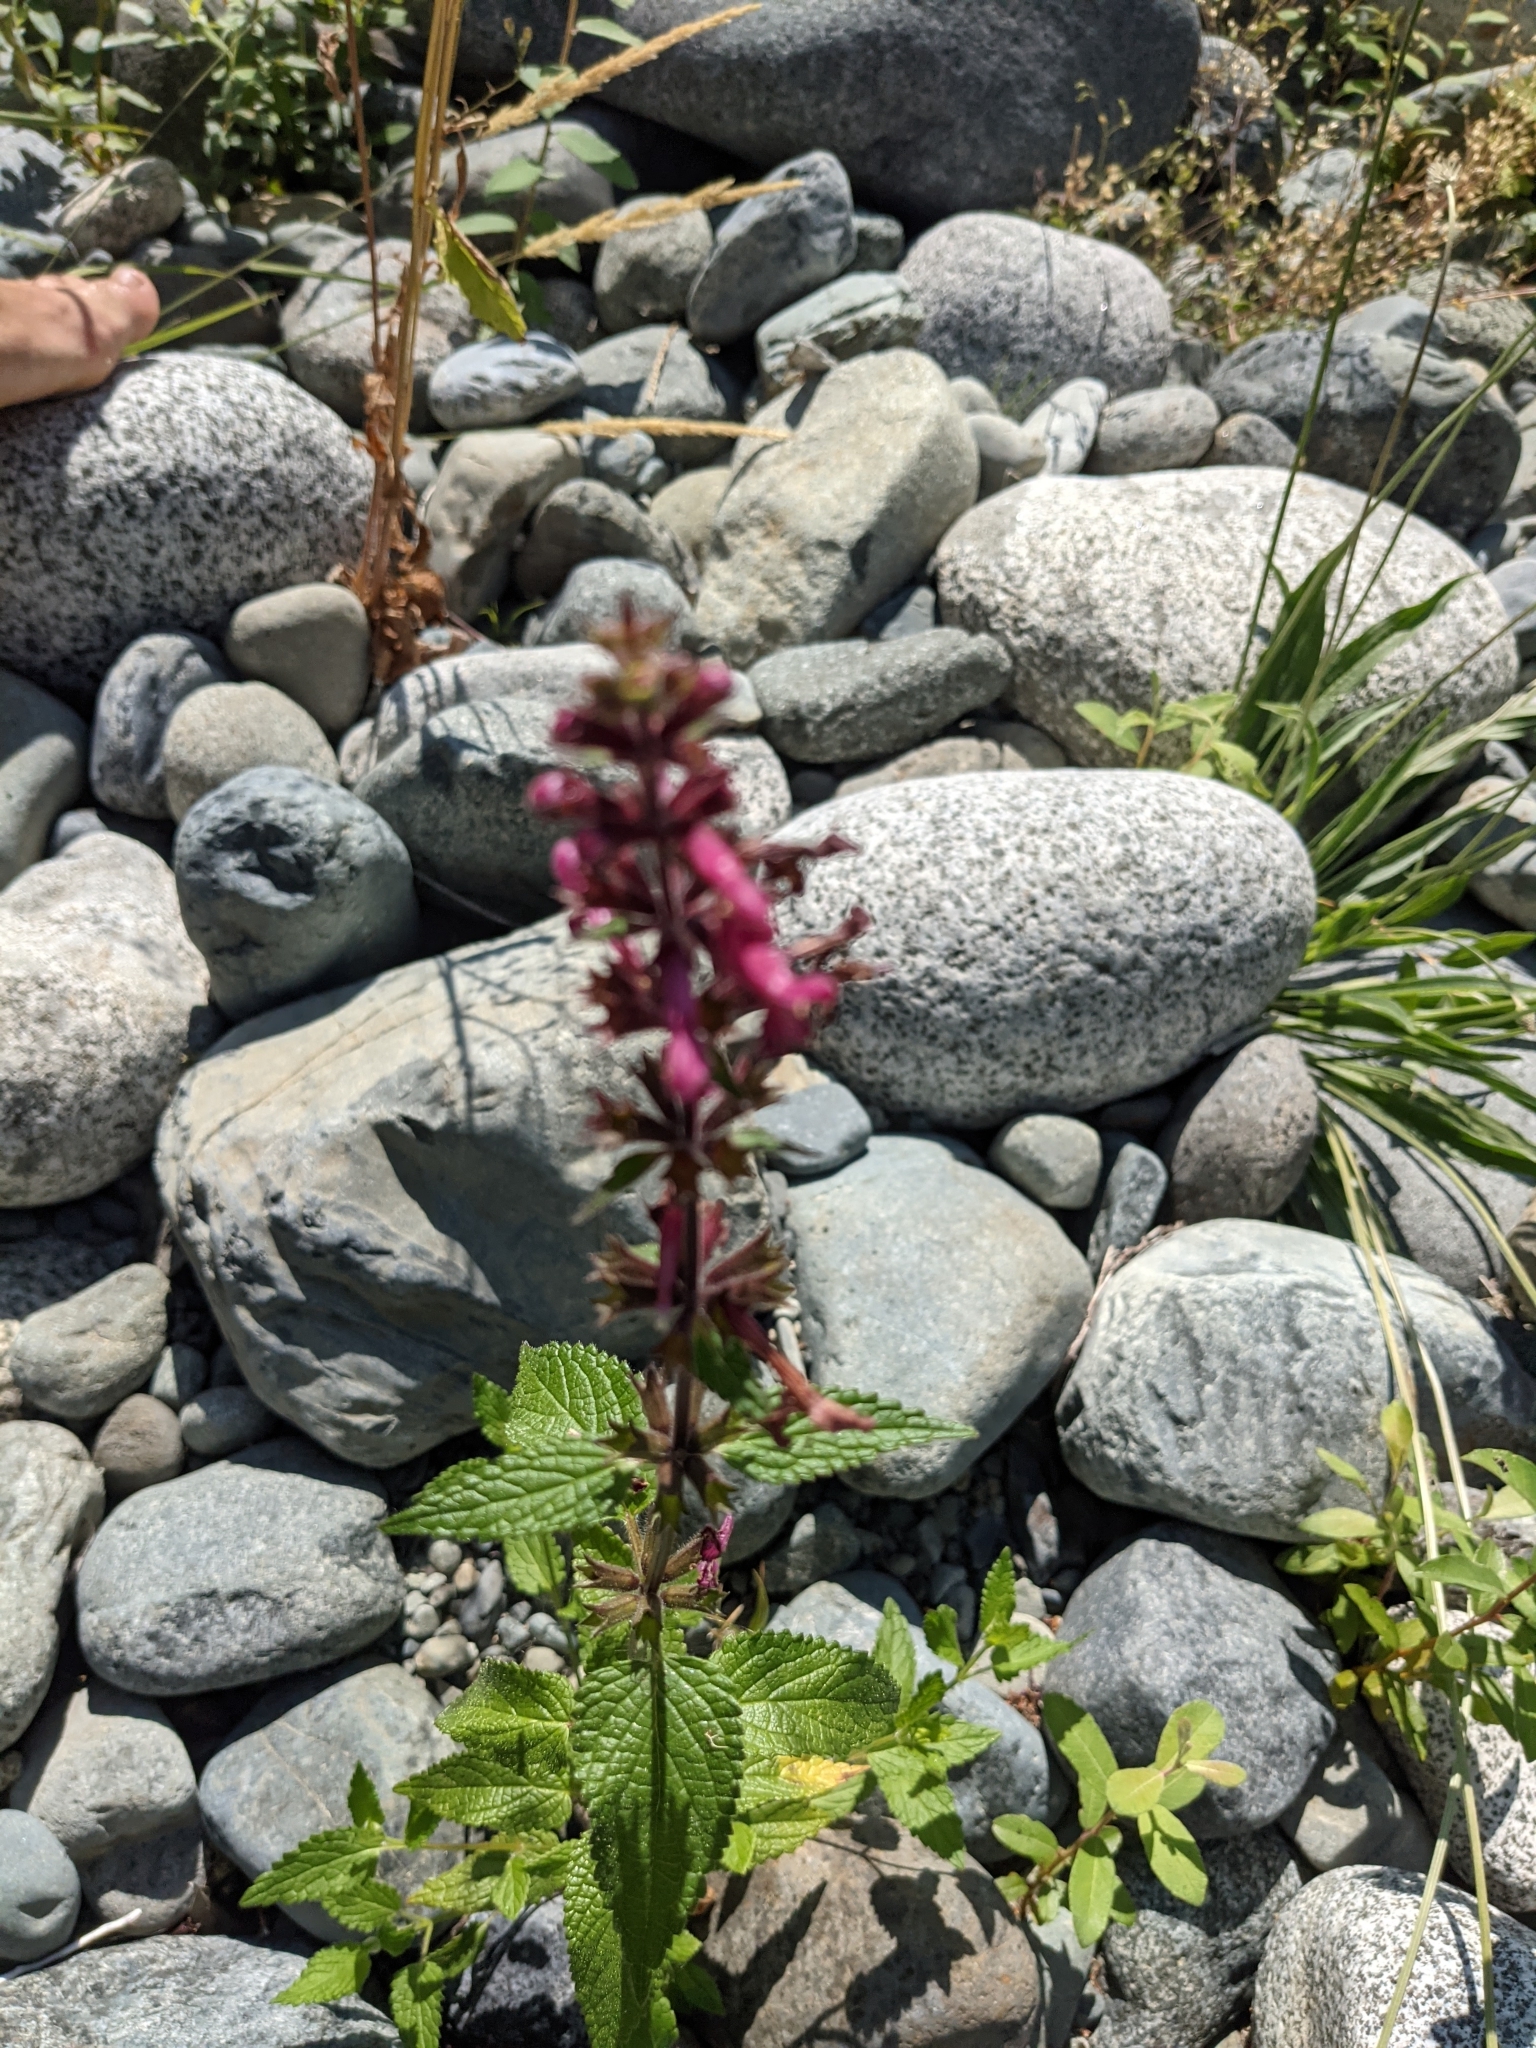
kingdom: Plantae
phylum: Tracheophyta
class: Magnoliopsida
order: Lamiales
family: Lamiaceae
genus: Stachys
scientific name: Stachys chamissonis
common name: Coastal hedge-nettle
